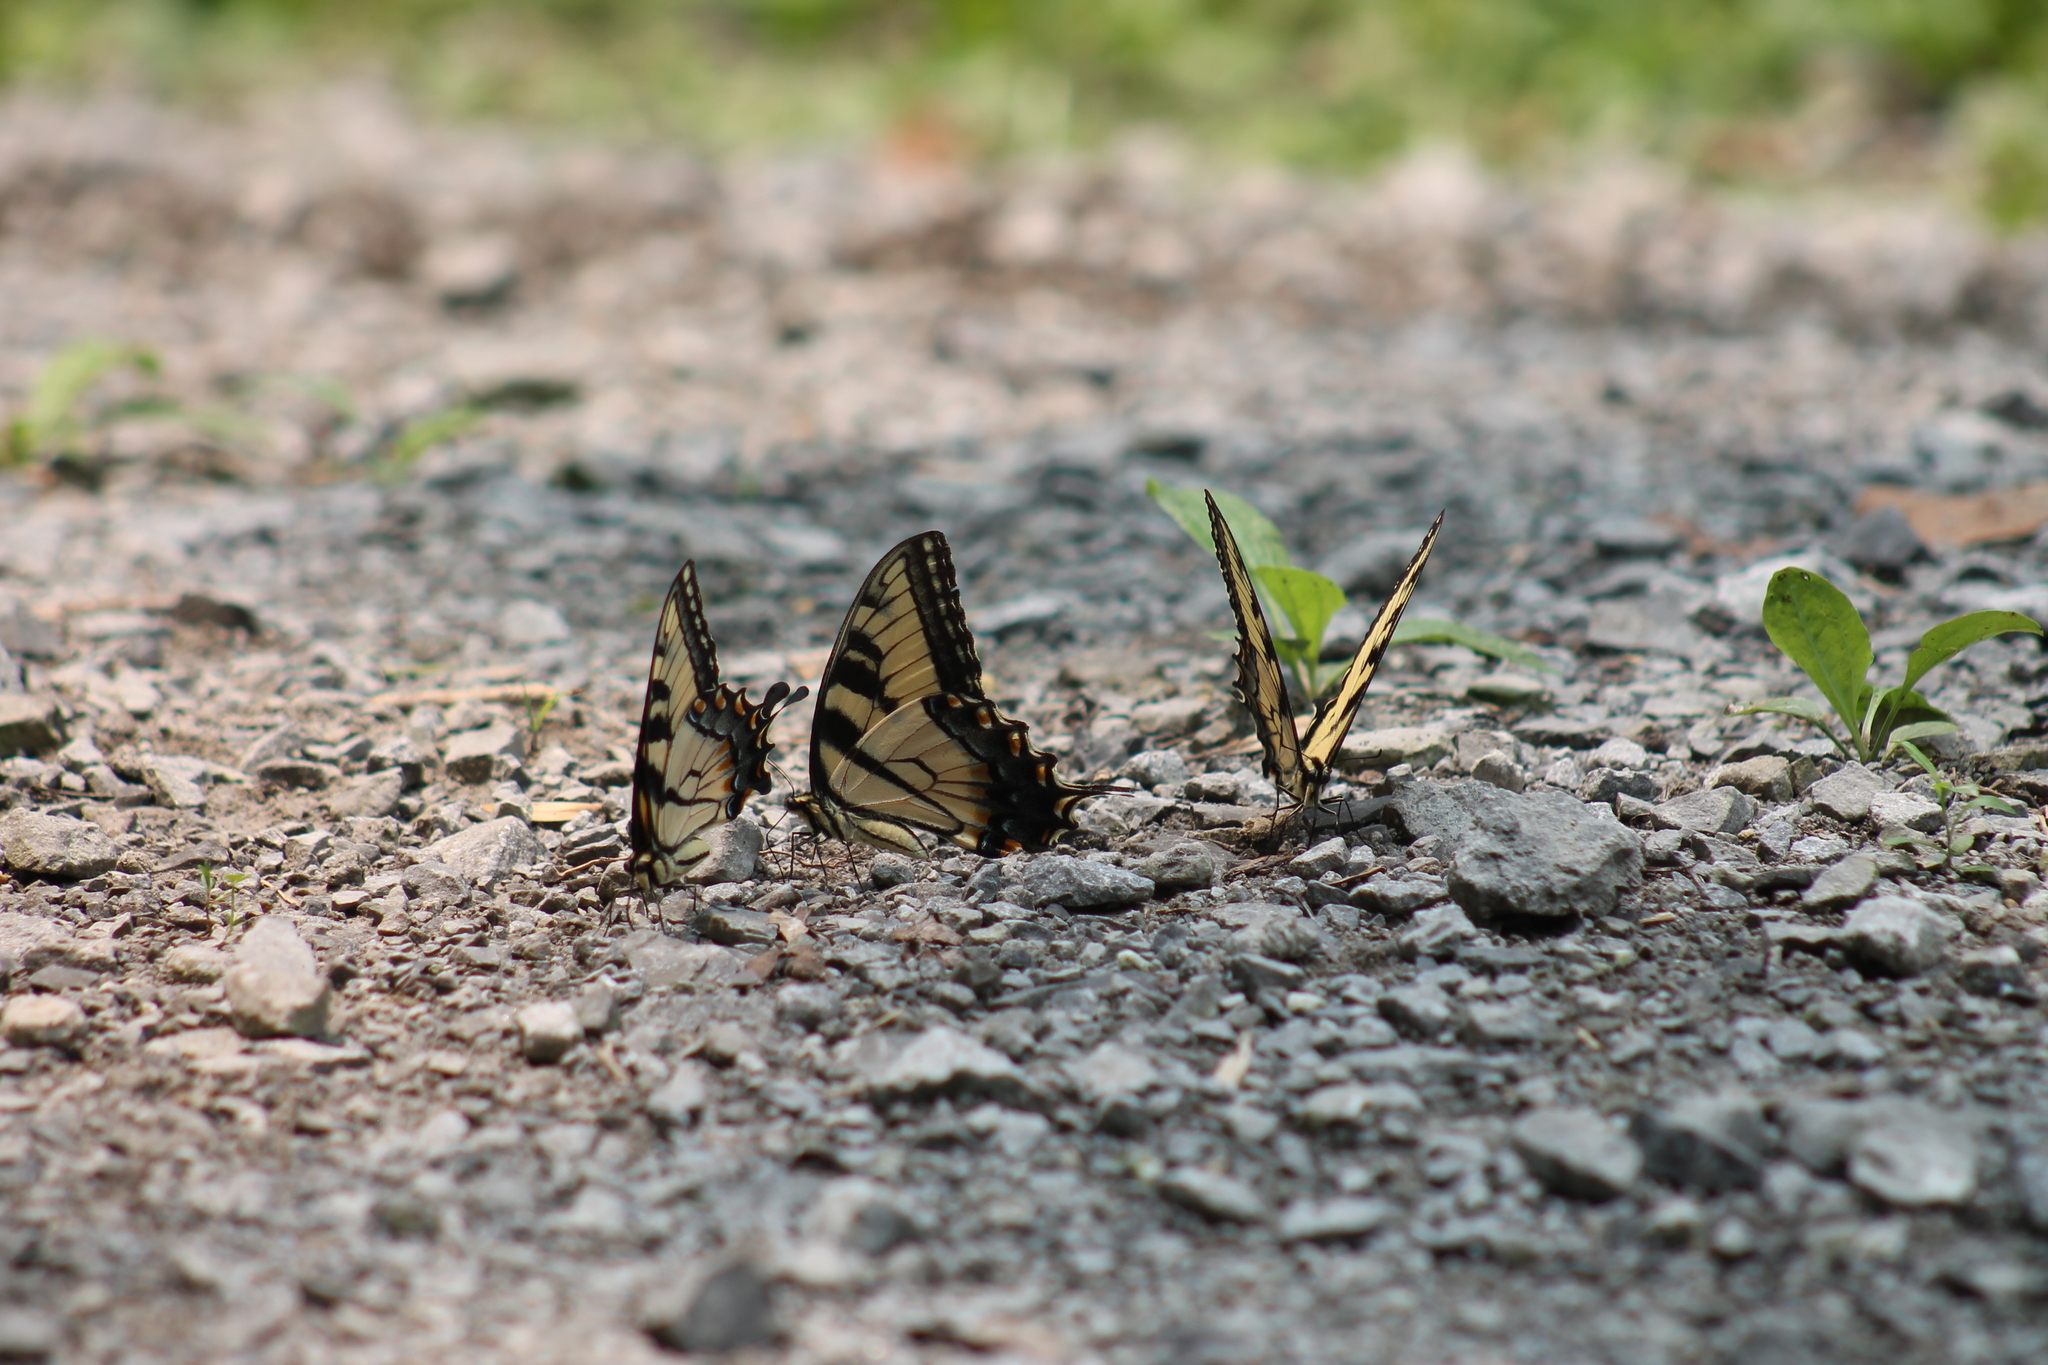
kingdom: Animalia
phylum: Arthropoda
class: Insecta
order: Lepidoptera
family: Papilionidae
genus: Papilio
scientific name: Papilio glaucus
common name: Tiger swallowtail
